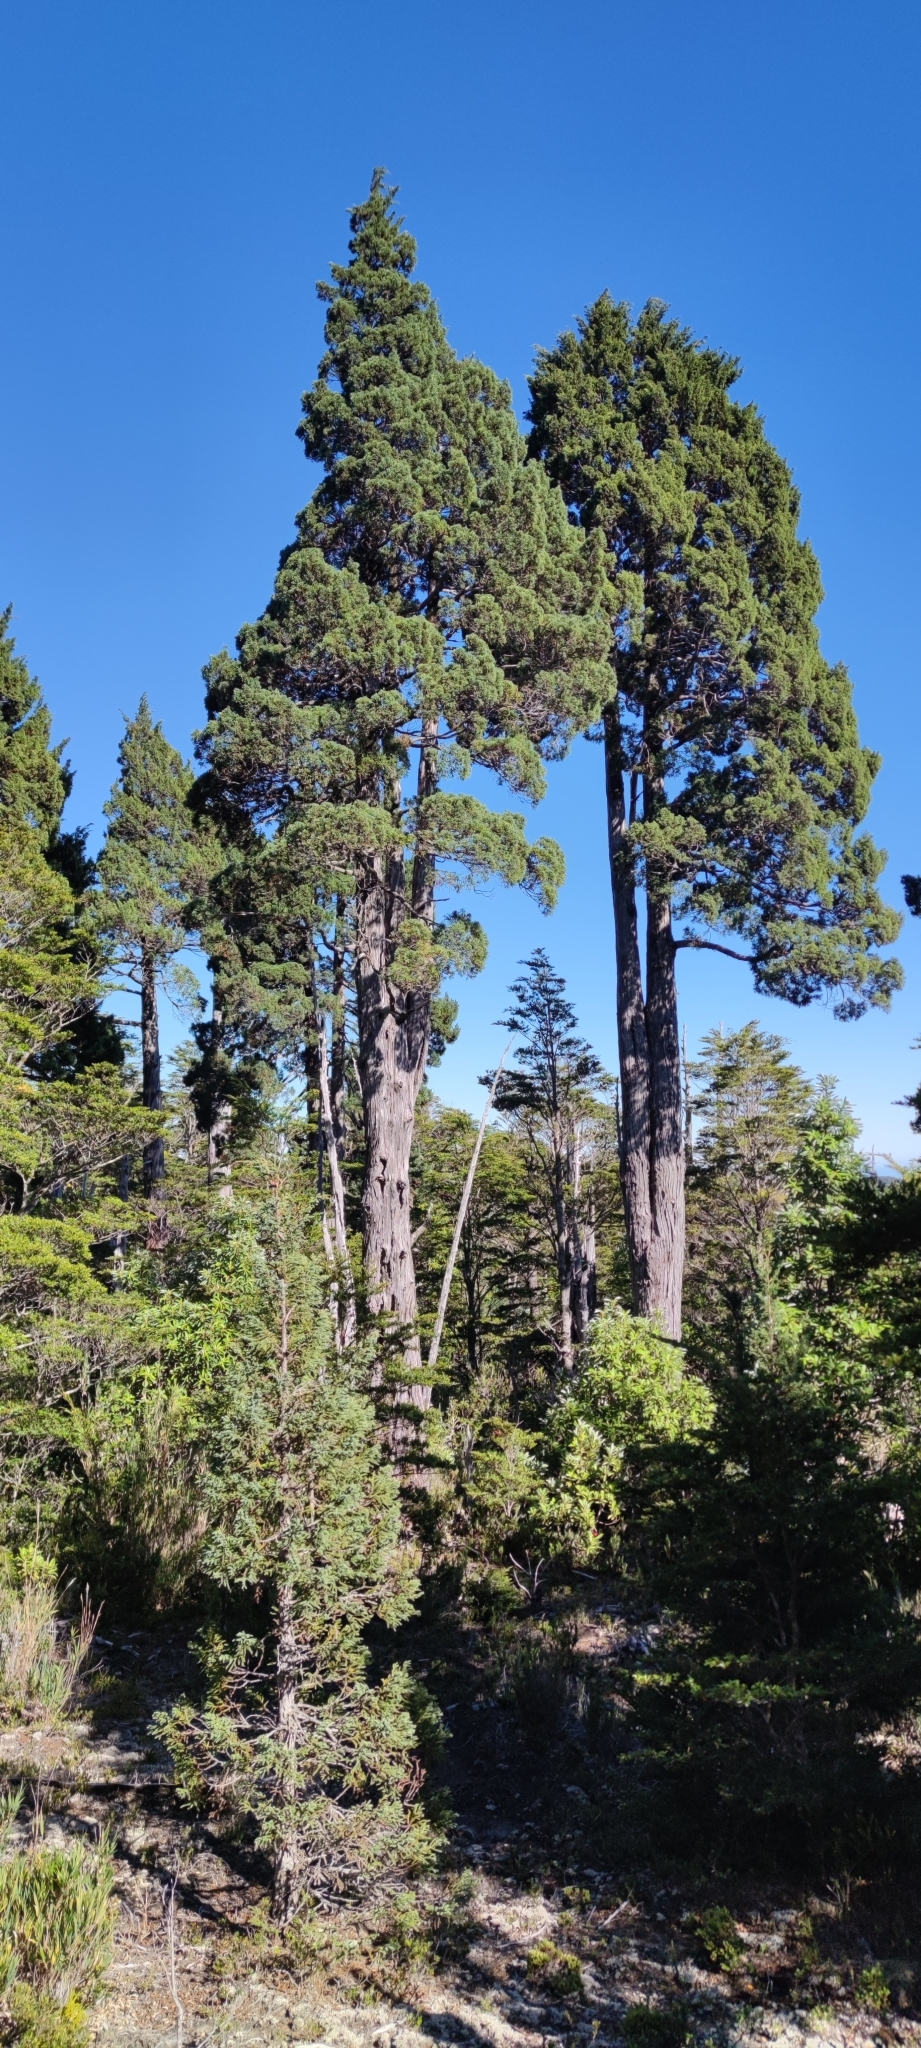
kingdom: Plantae
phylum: Tracheophyta
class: Pinopsida
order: Pinales
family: Cupressaceae
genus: Fitzroya
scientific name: Fitzroya cupressoides
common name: Patagonian cypress
